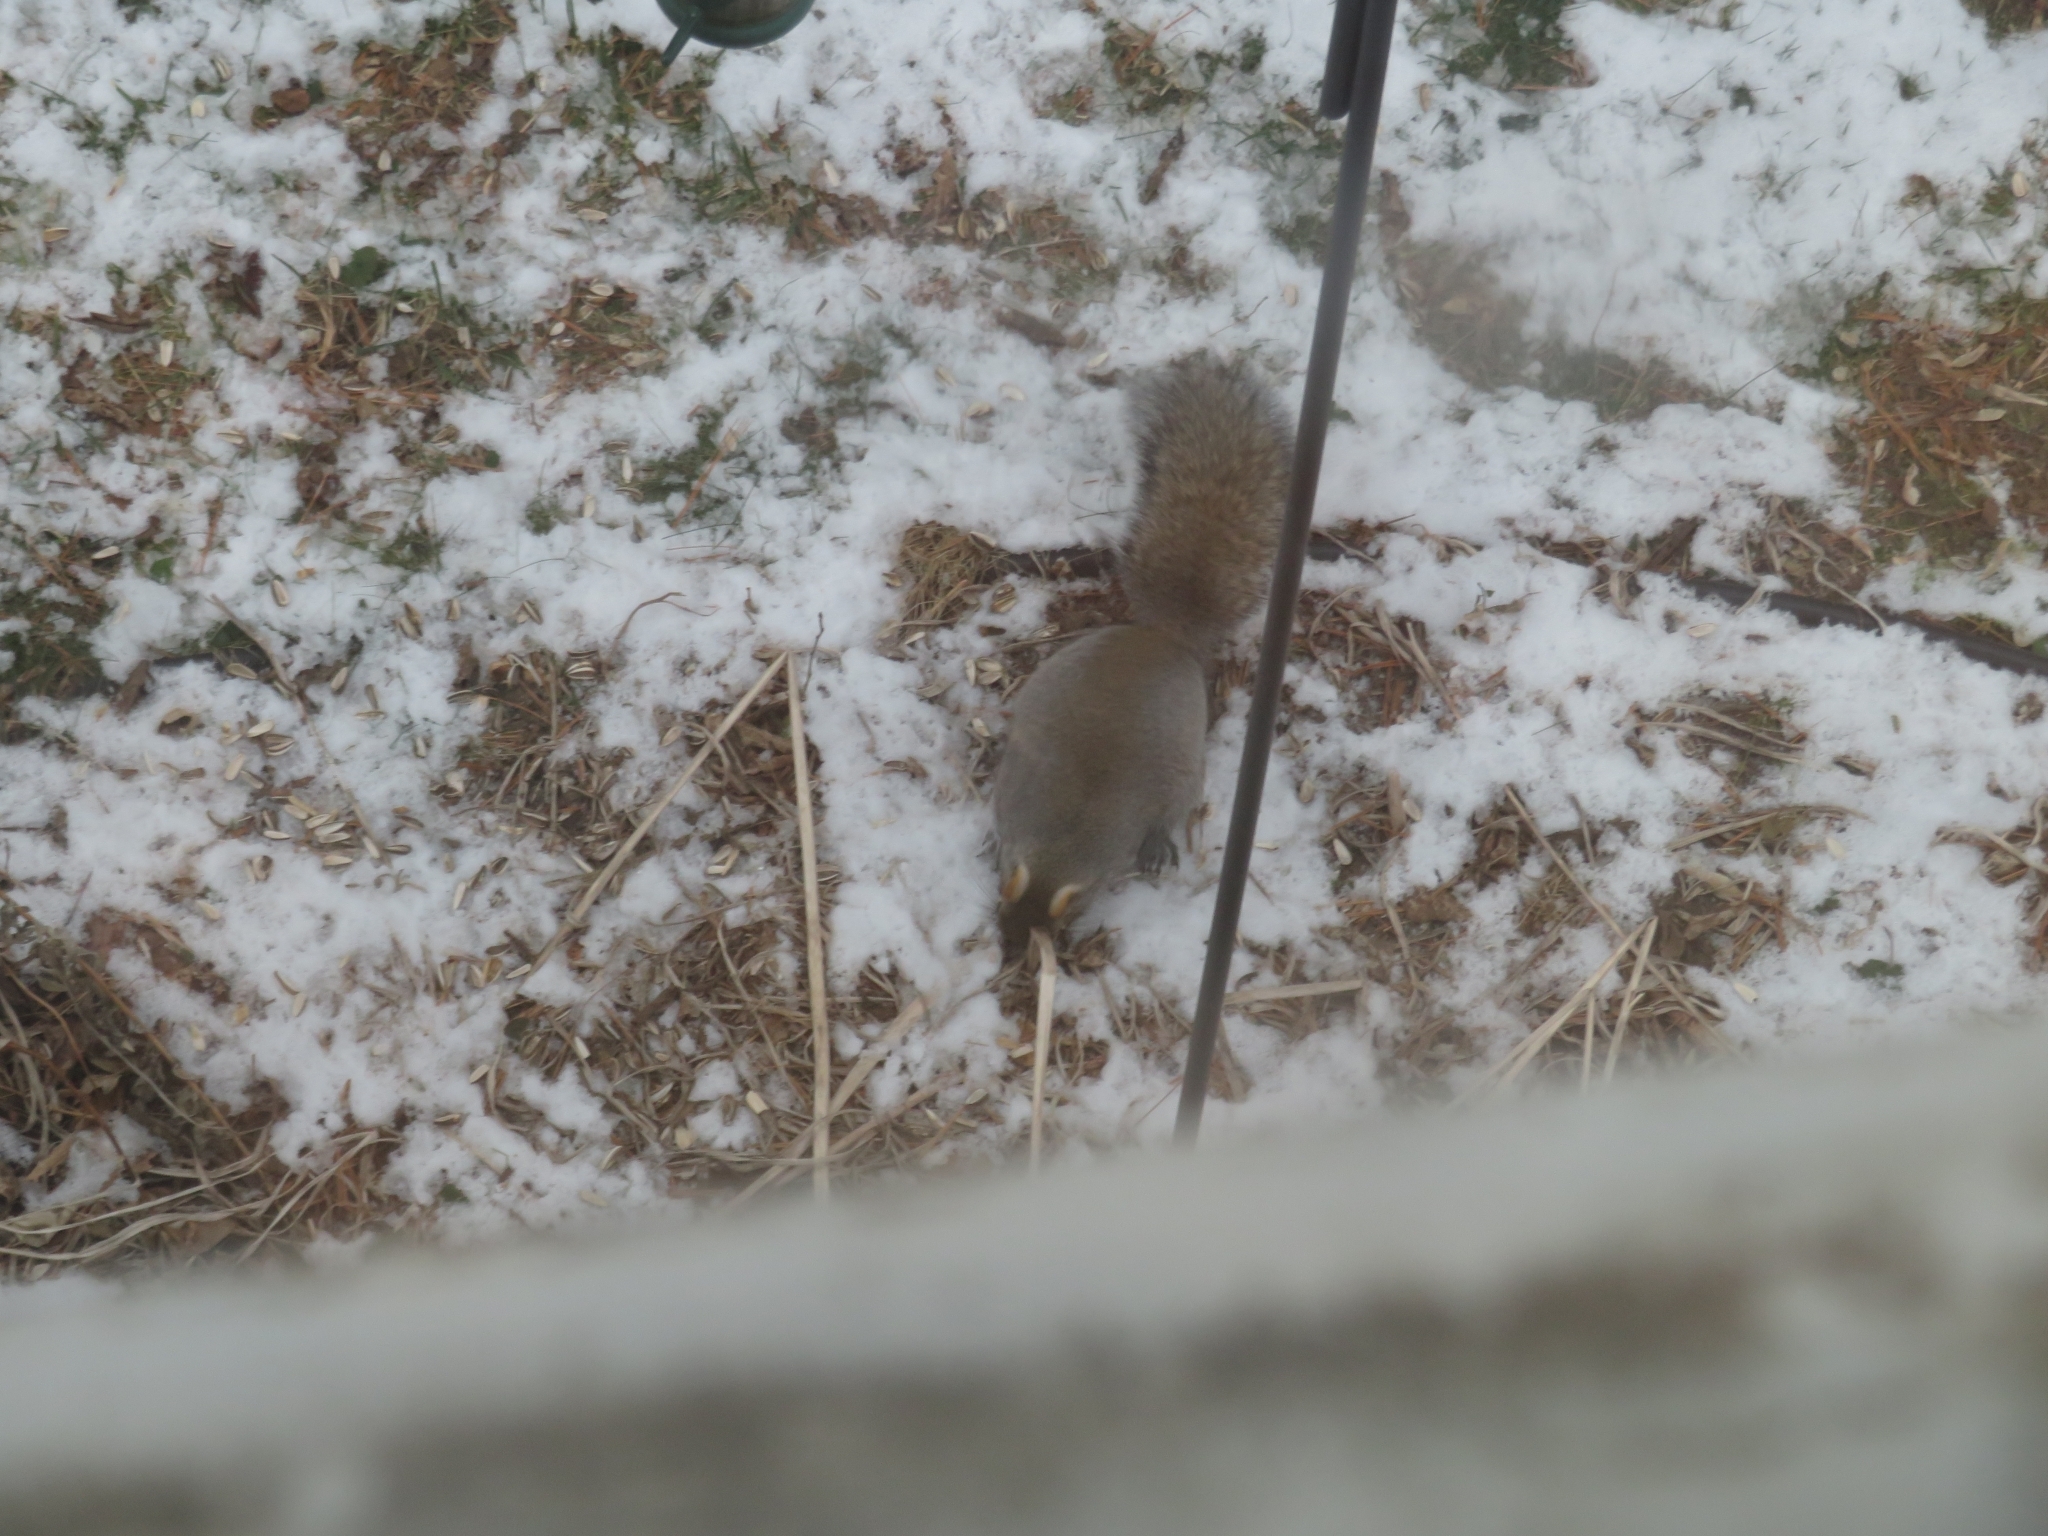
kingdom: Animalia
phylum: Chordata
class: Mammalia
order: Rodentia
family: Sciuridae
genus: Sciurus
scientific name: Sciurus carolinensis
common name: Eastern gray squirrel
